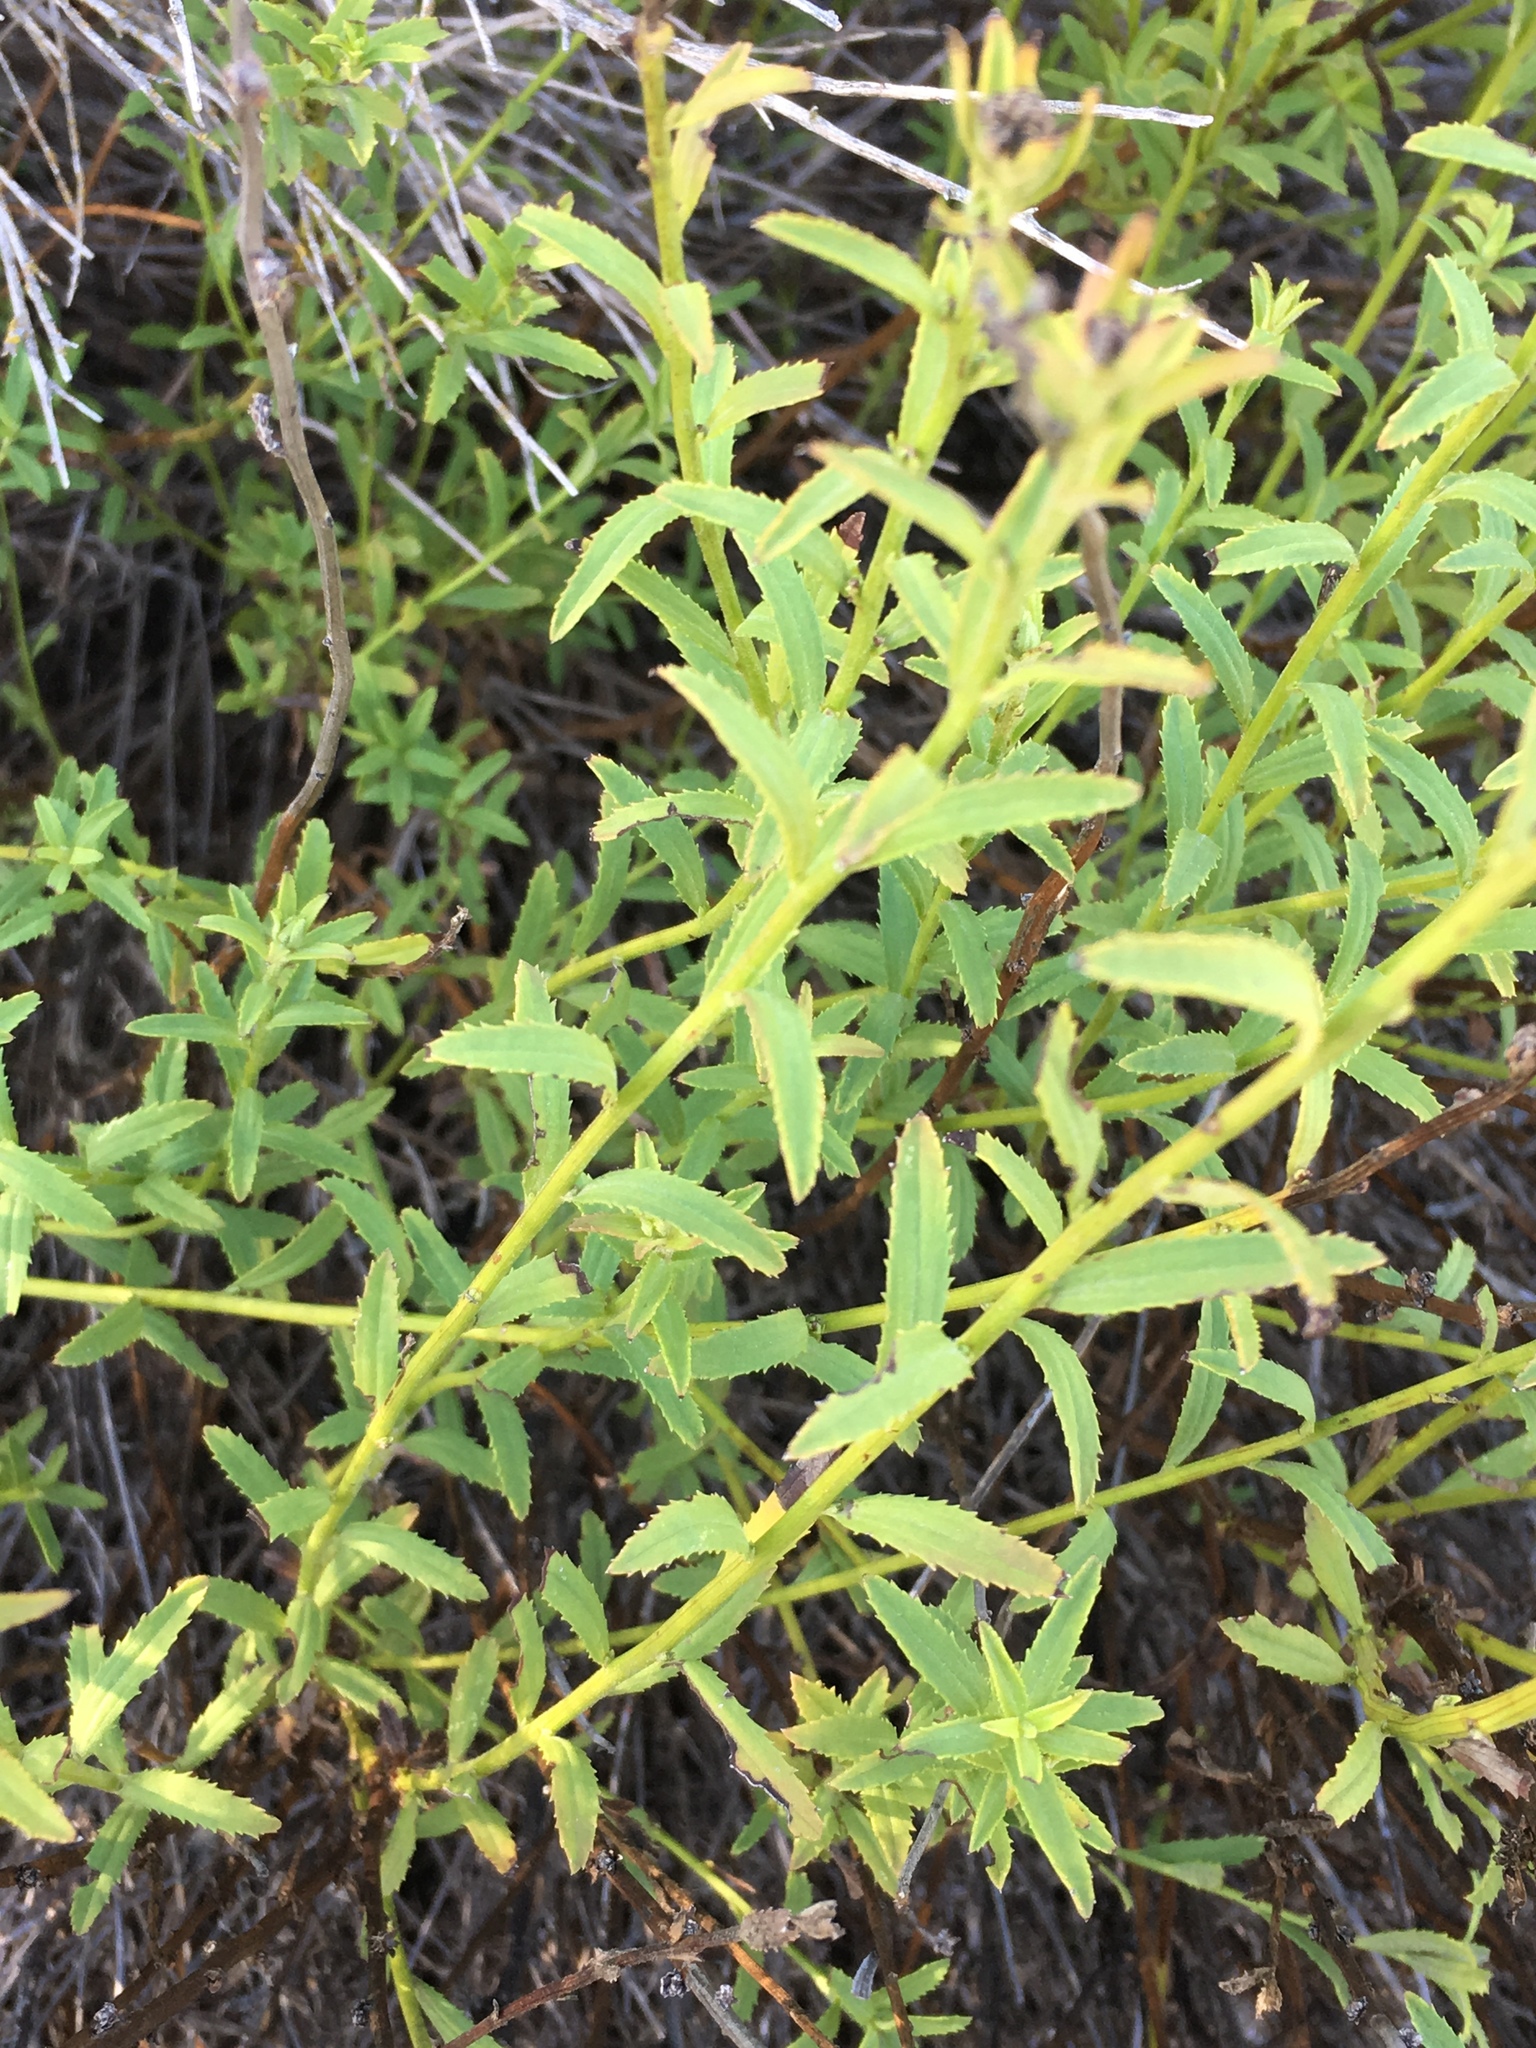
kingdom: Plantae
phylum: Tracheophyta
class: Magnoliopsida
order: Asterales
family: Asteraceae
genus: Baccharis
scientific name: Baccharis plummerae
